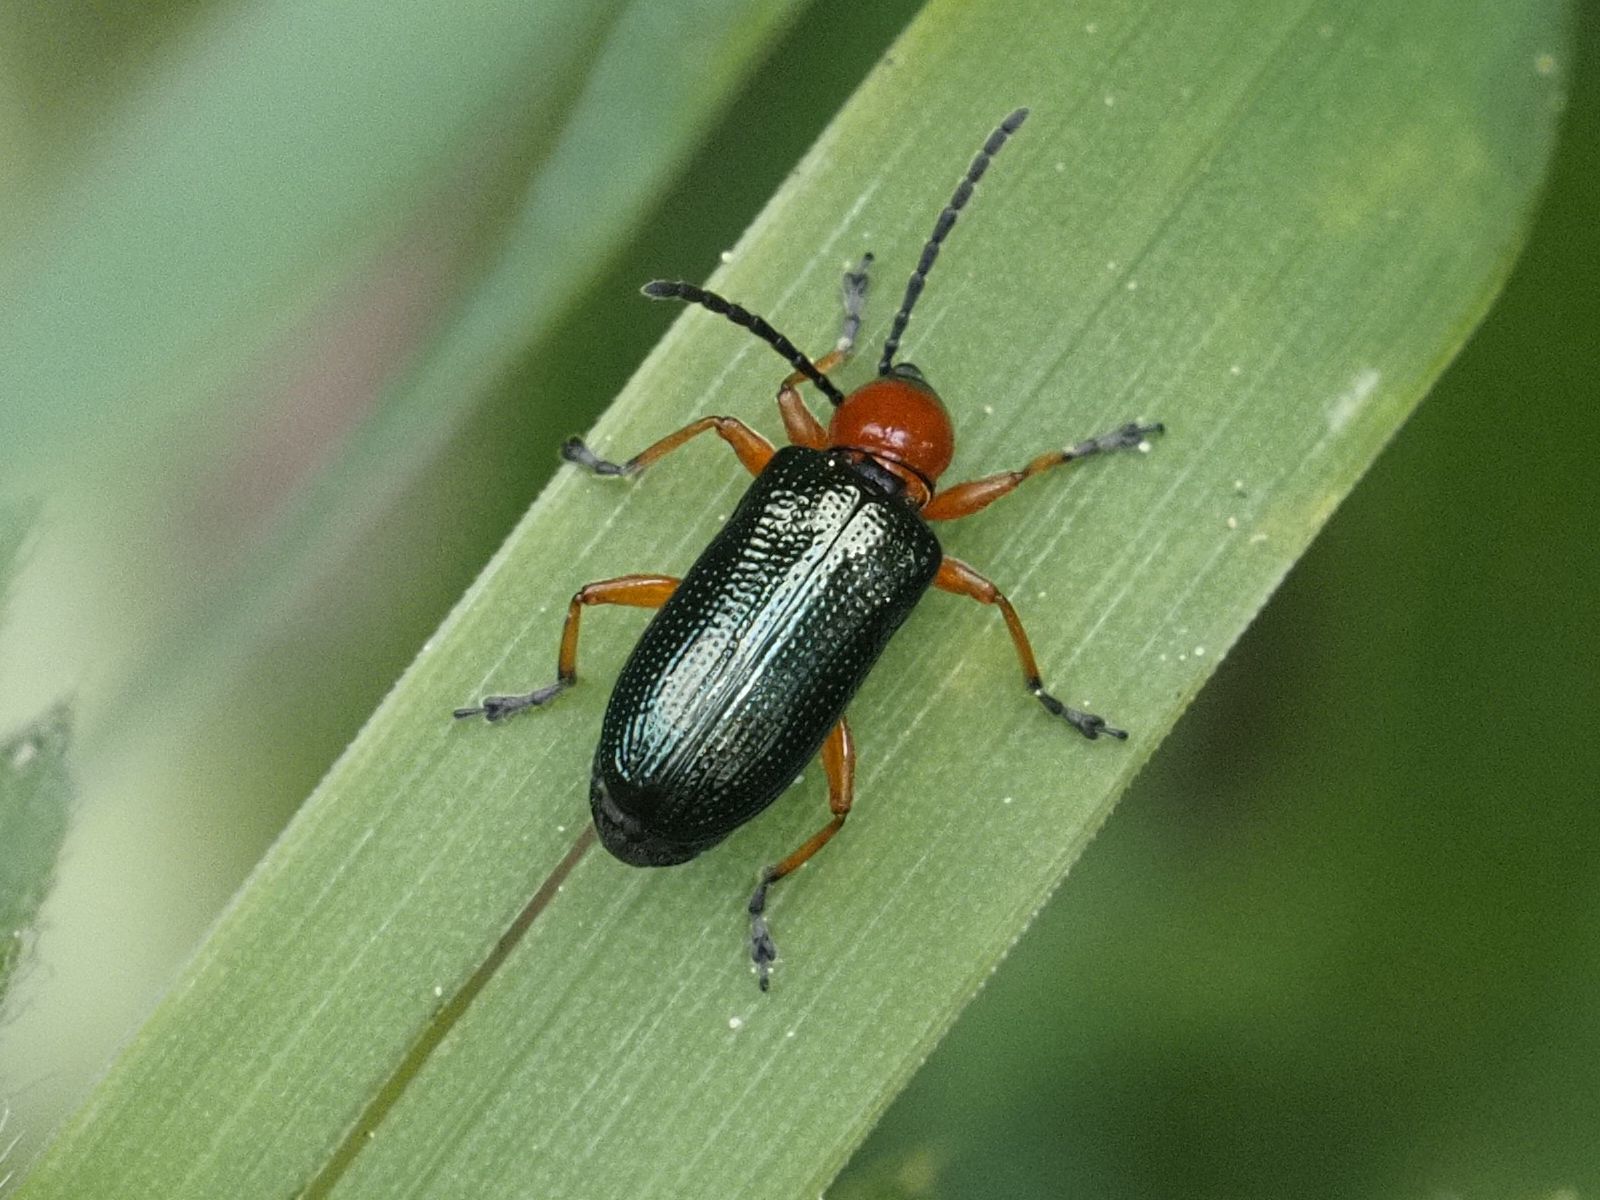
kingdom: Animalia
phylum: Arthropoda
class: Insecta
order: Coleoptera
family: Chrysomelidae
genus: Oulema
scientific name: Oulema
